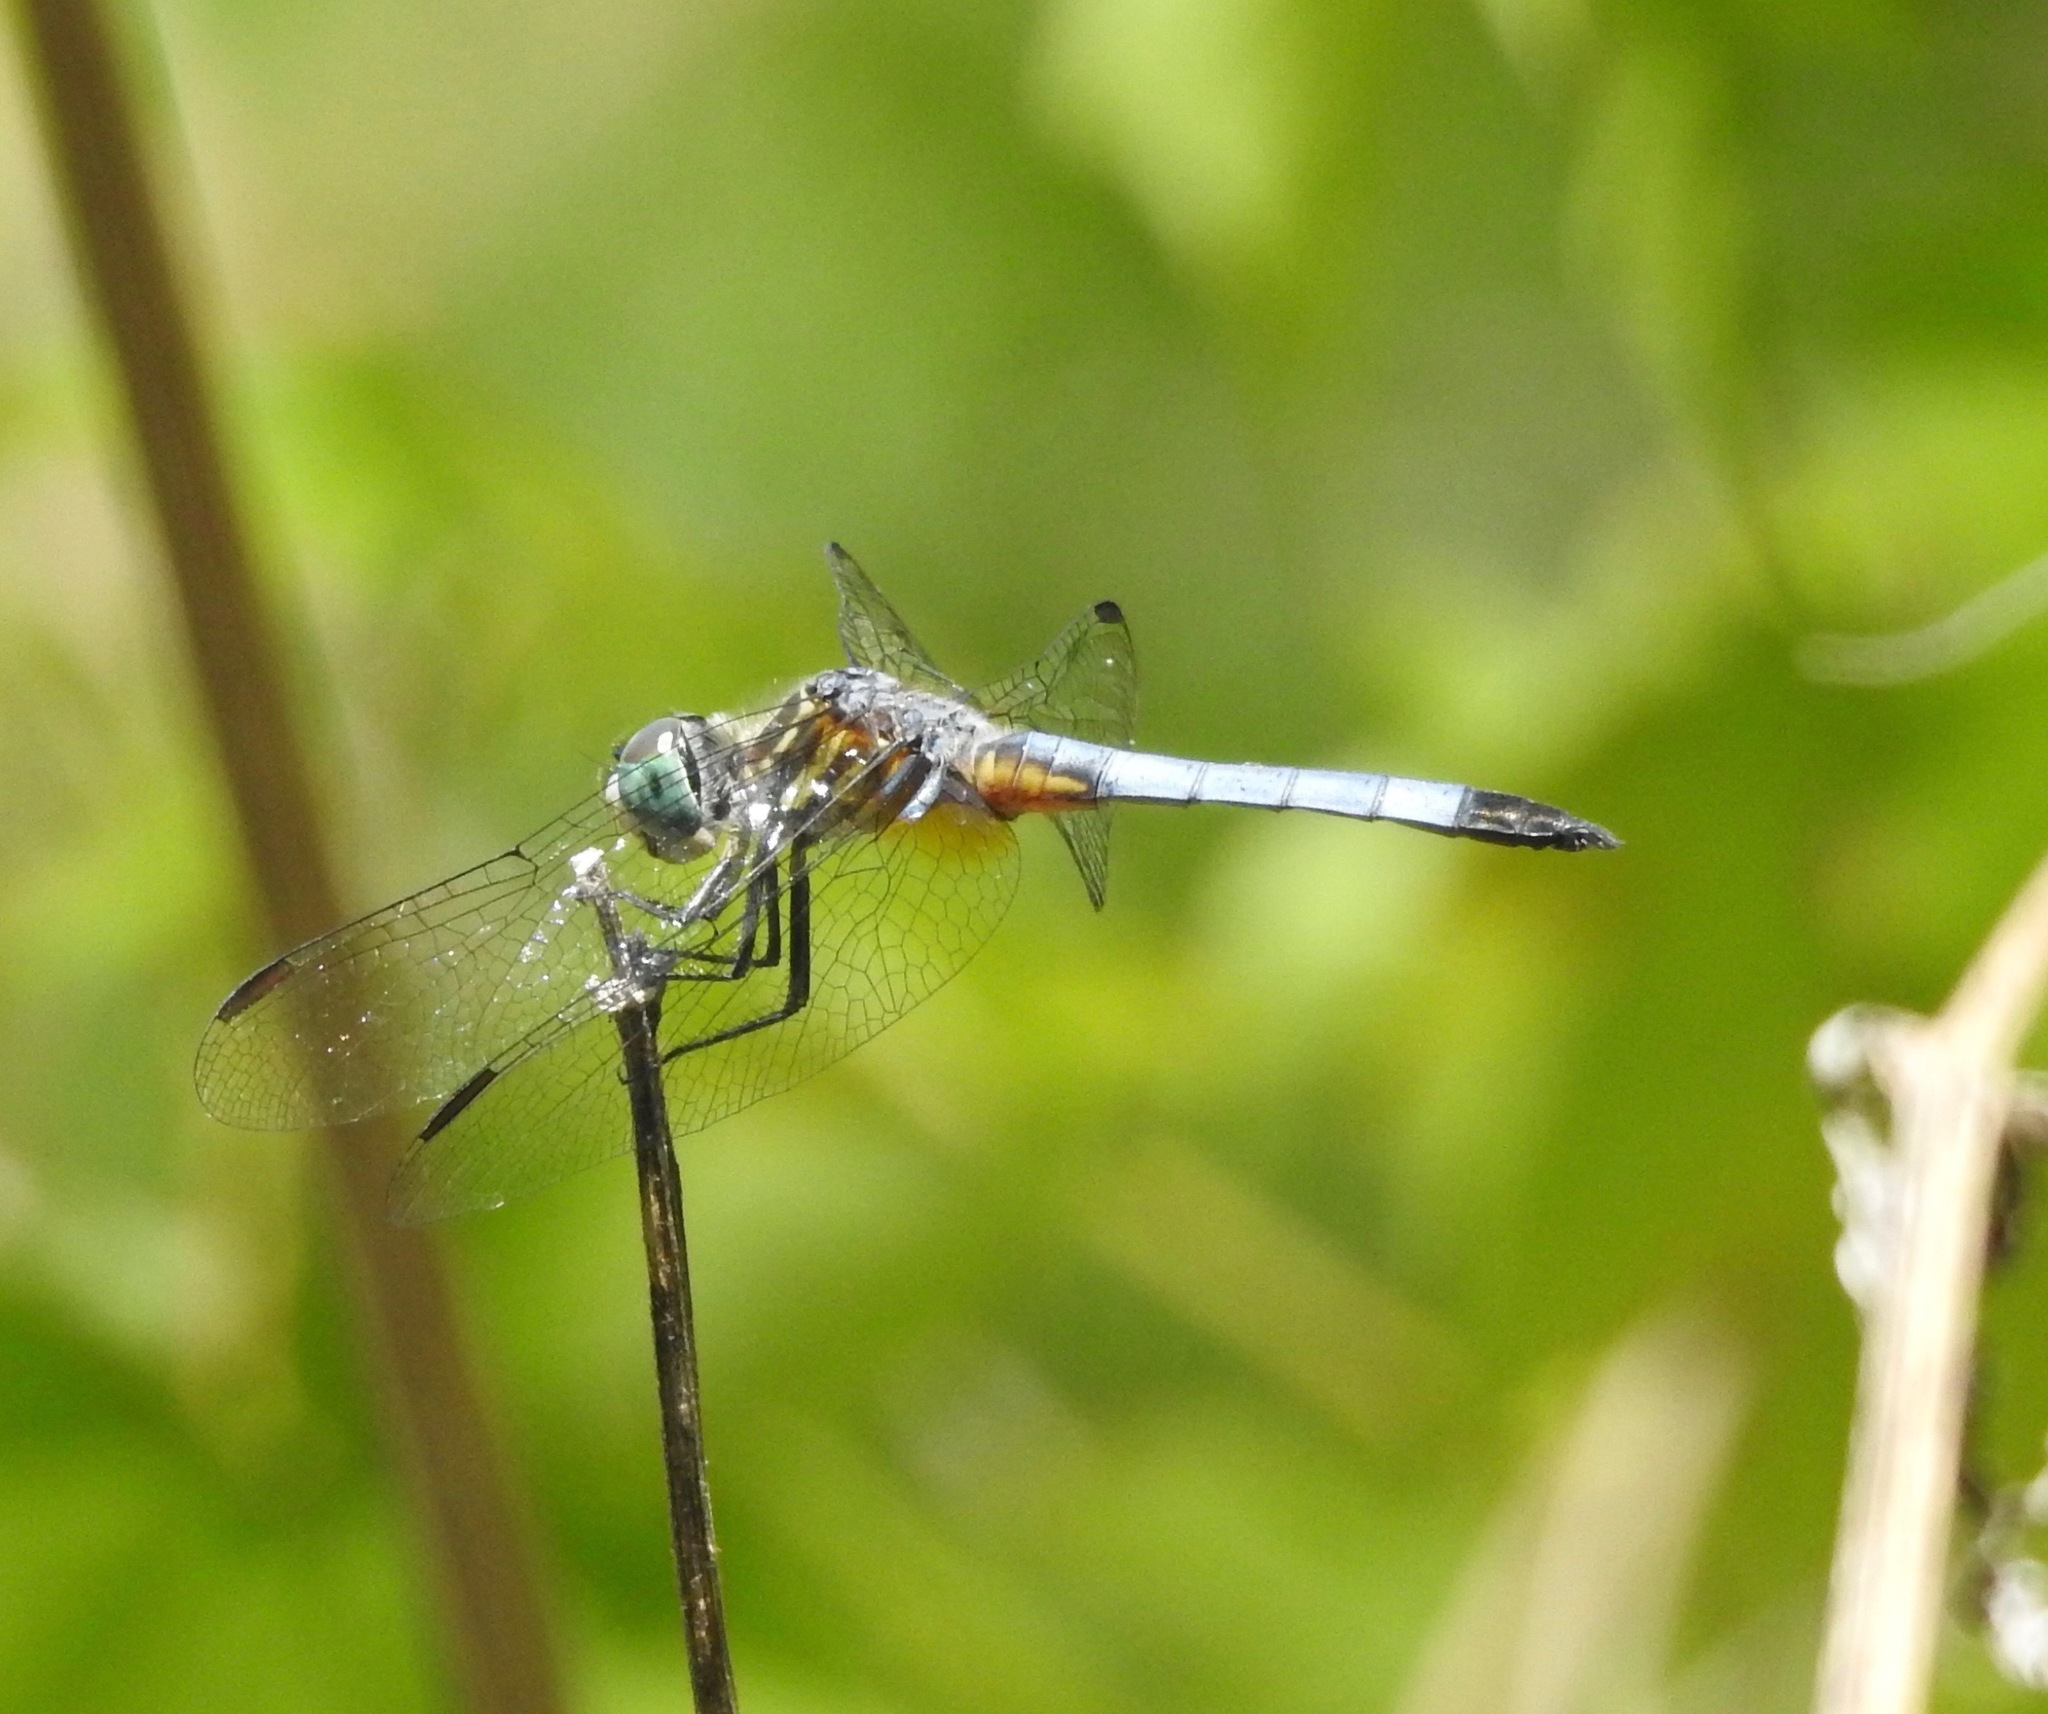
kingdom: Animalia
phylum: Arthropoda
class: Insecta
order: Odonata
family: Libellulidae
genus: Pachydiplax
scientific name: Pachydiplax longipennis
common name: Blue dasher
